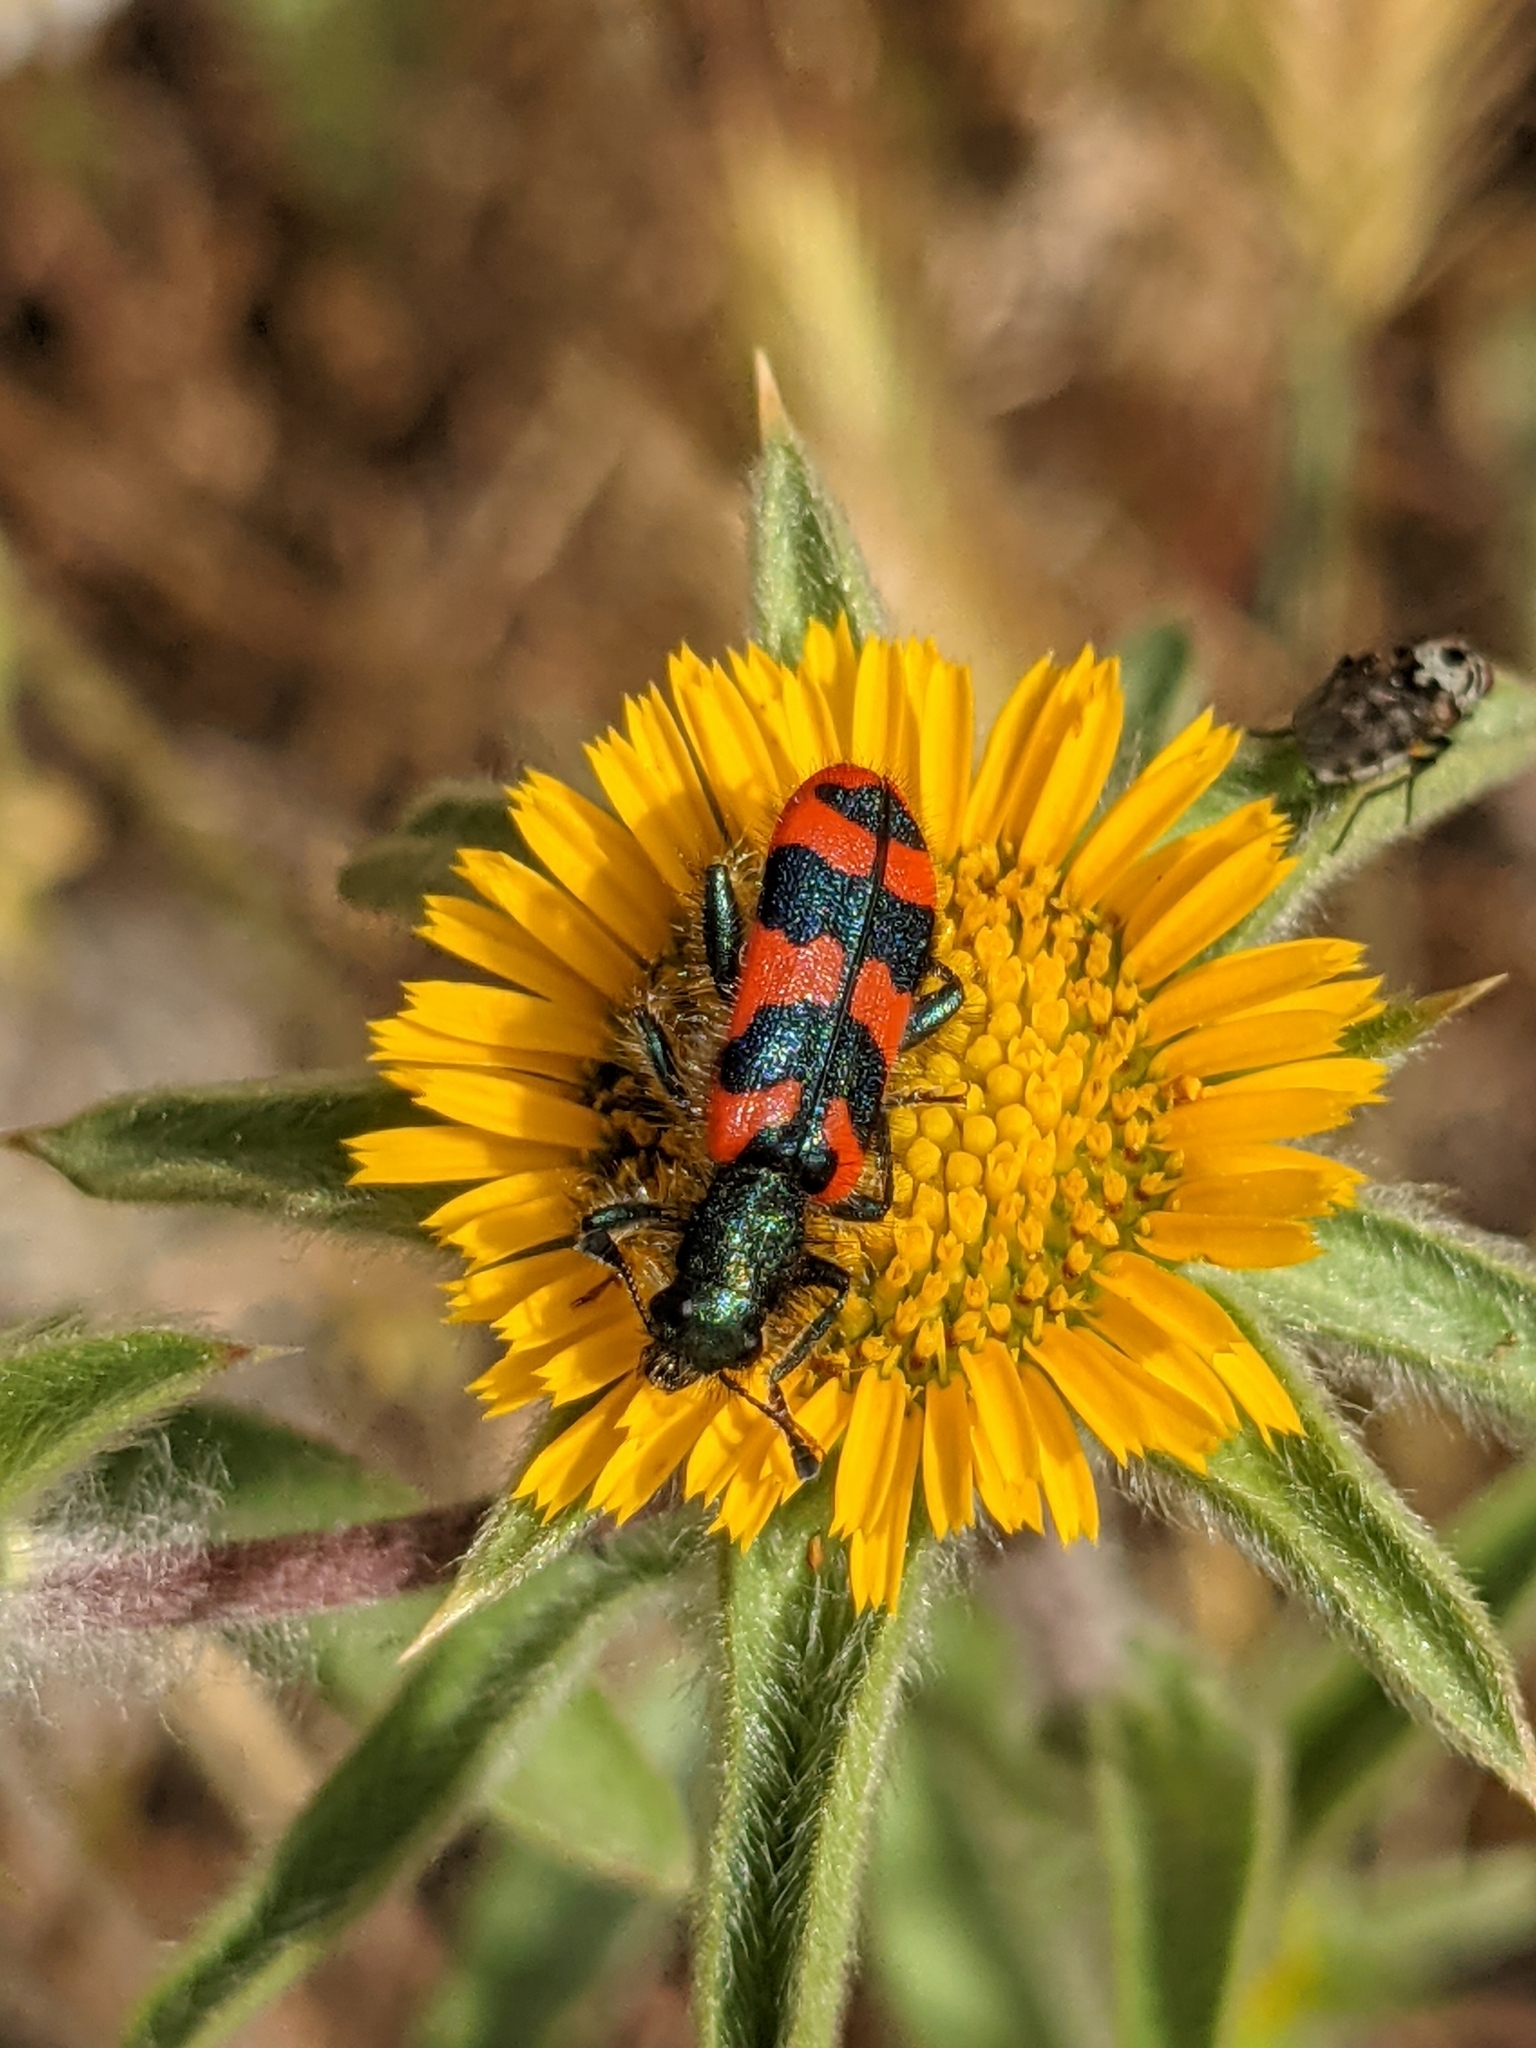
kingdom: Animalia
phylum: Arthropoda
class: Insecta
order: Coleoptera
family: Cleridae
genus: Trichodes
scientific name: Trichodes alvearius
